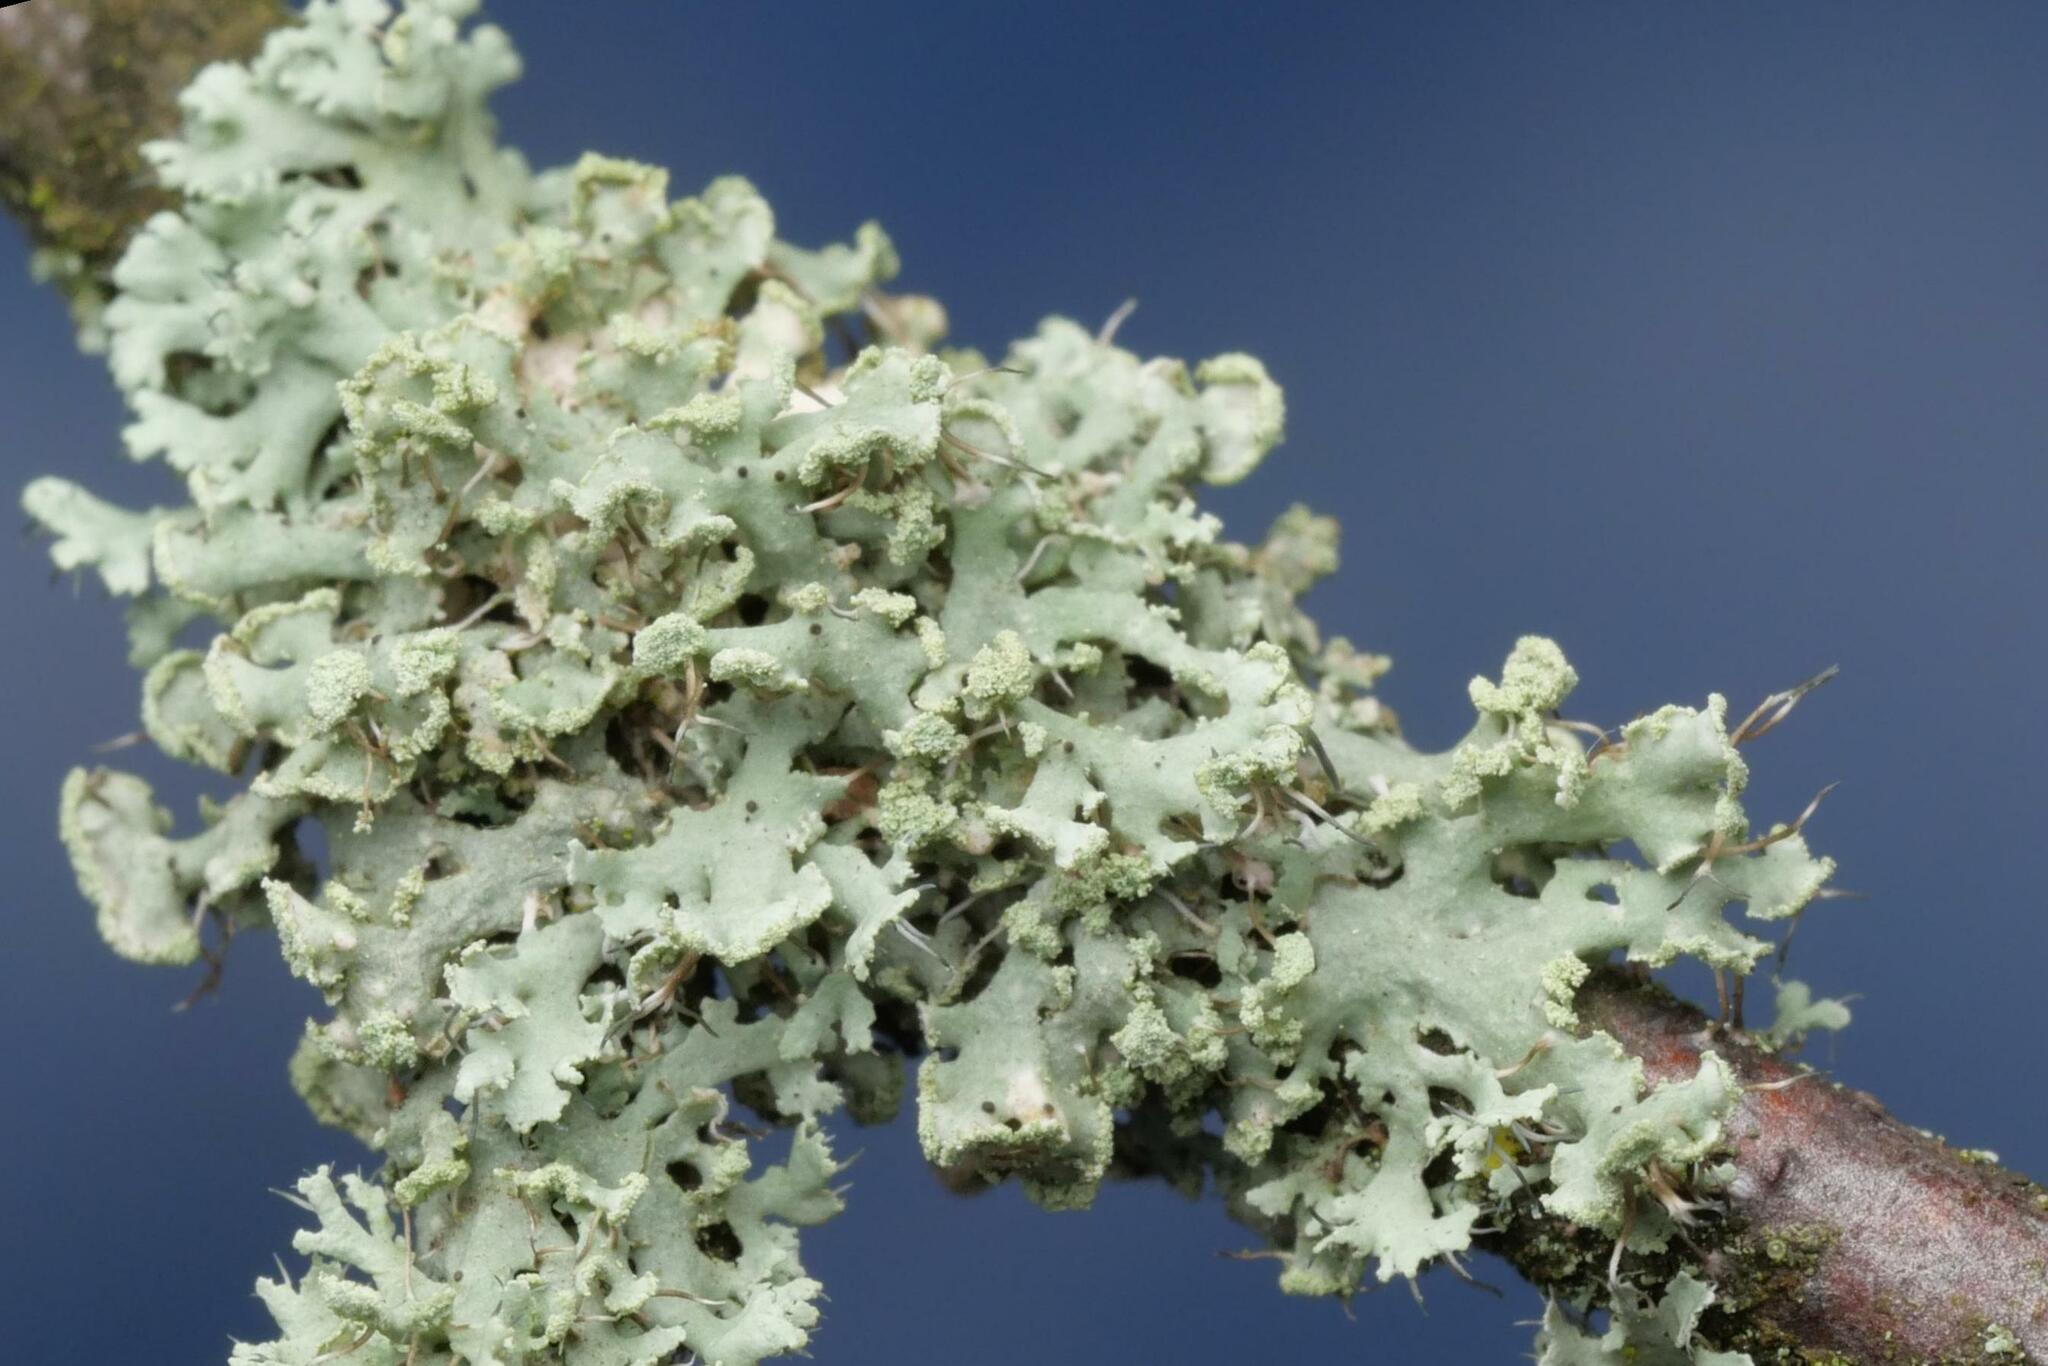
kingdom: Fungi
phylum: Ascomycota
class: Lecanoromycetes
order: Caliciales
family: Physciaceae
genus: Physcia
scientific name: Physcia tenella
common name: Fringed rosette lichen
